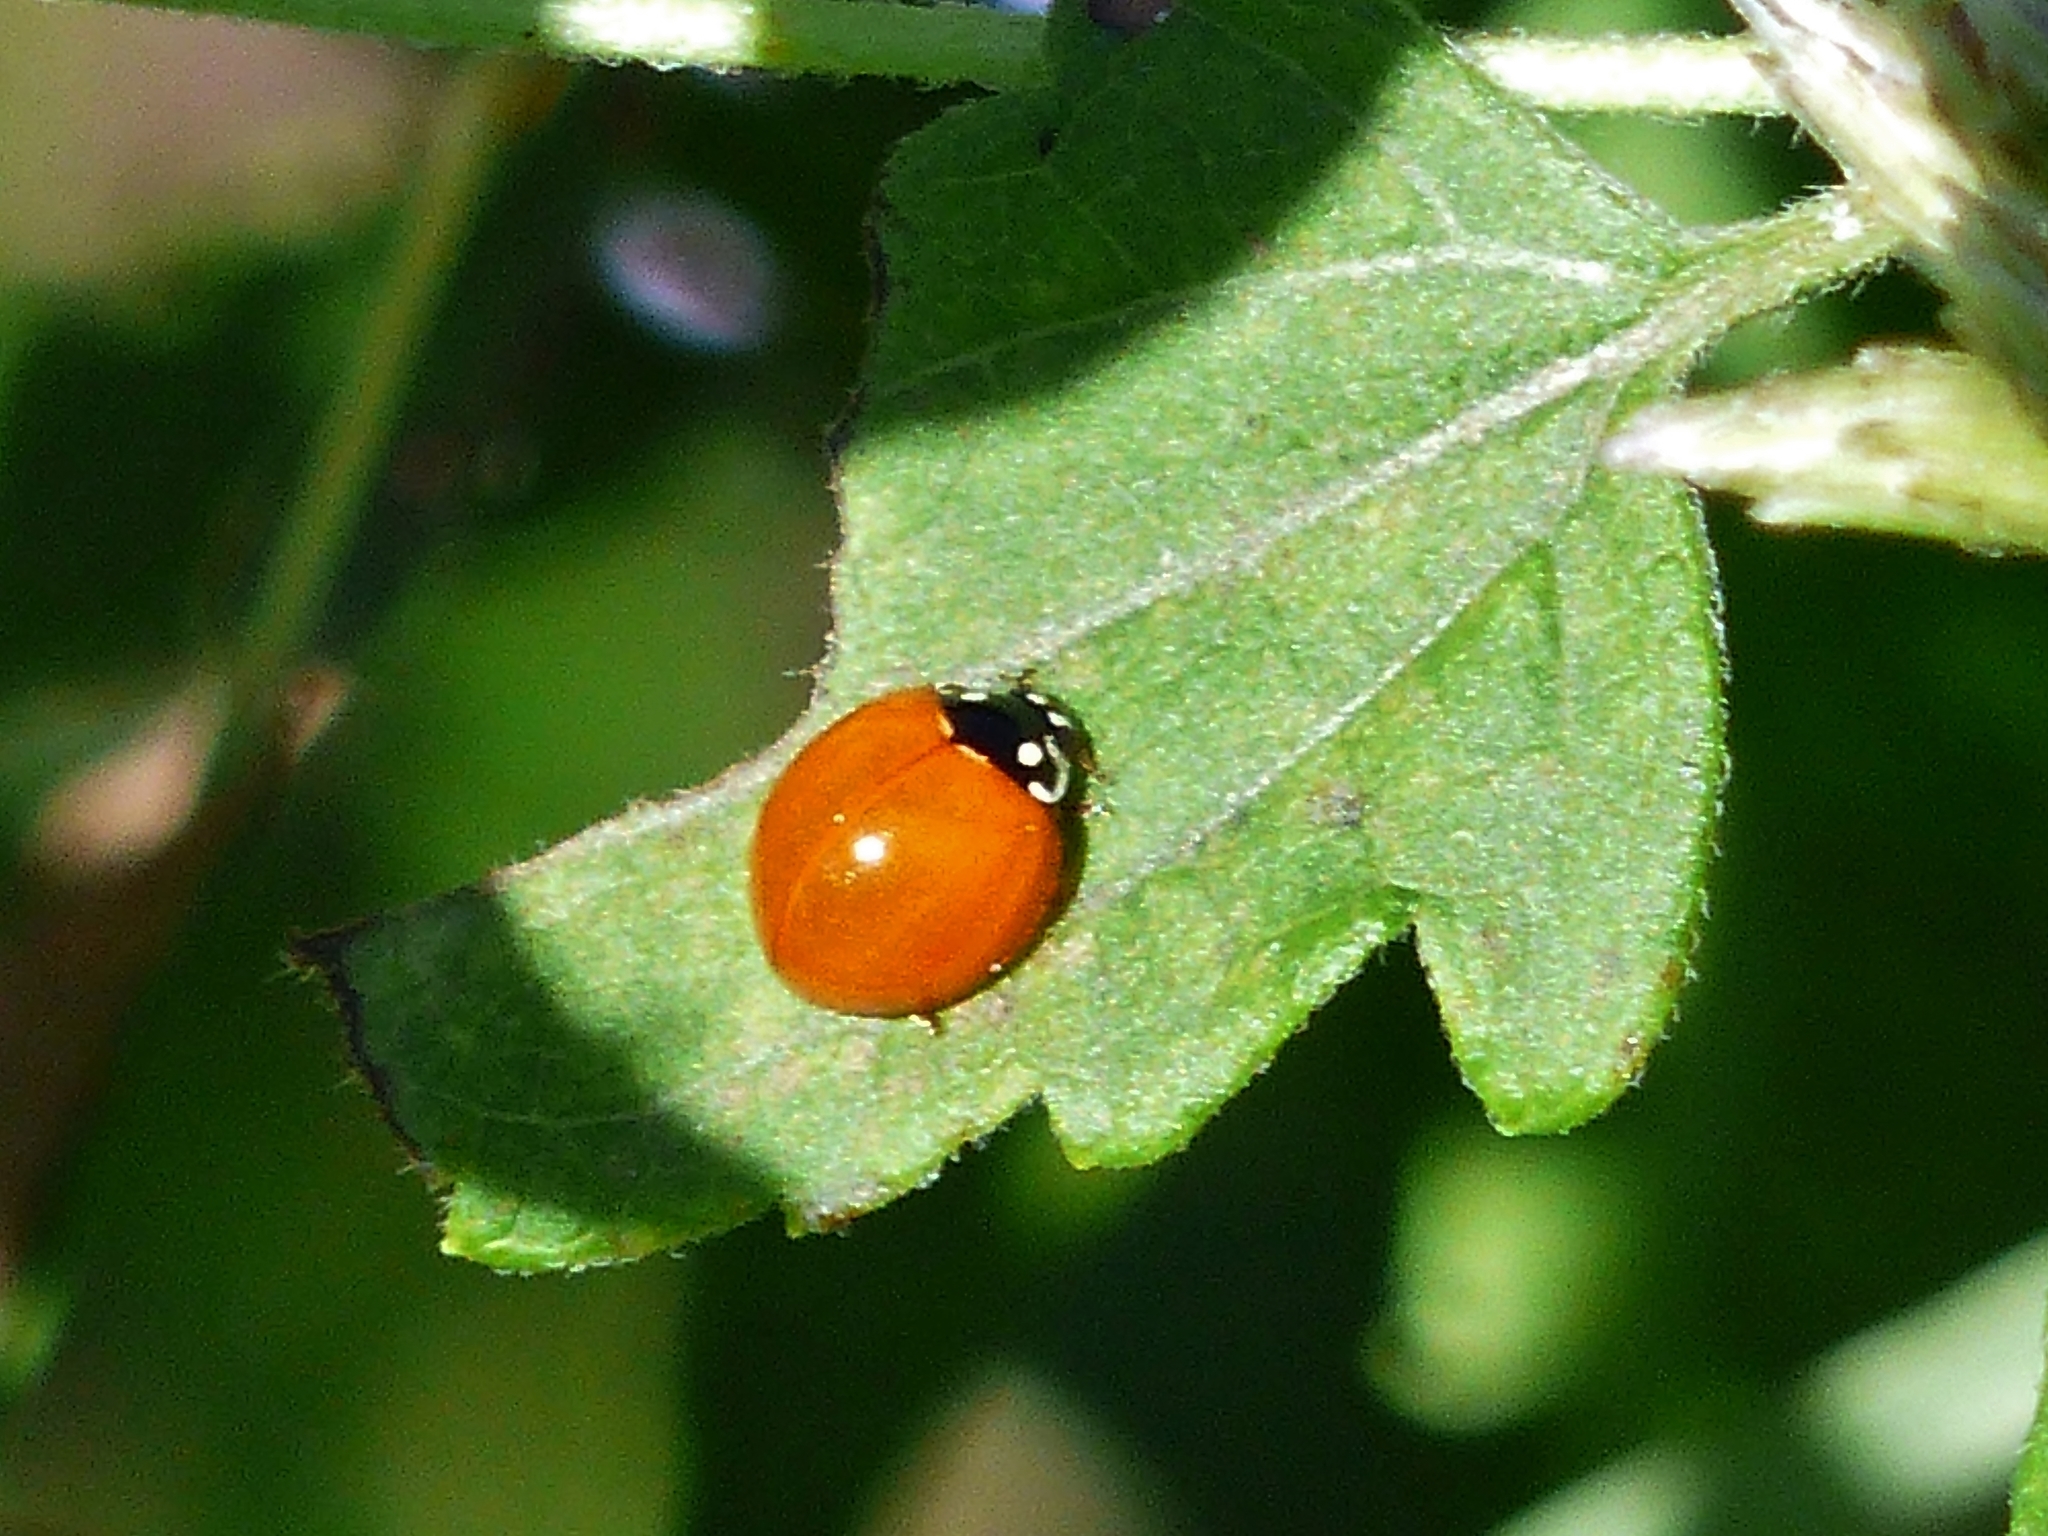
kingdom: Animalia
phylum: Arthropoda
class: Insecta
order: Coleoptera
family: Coccinellidae
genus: Cycloneda
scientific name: Cycloneda sanguinea
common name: Ladybird beetle
